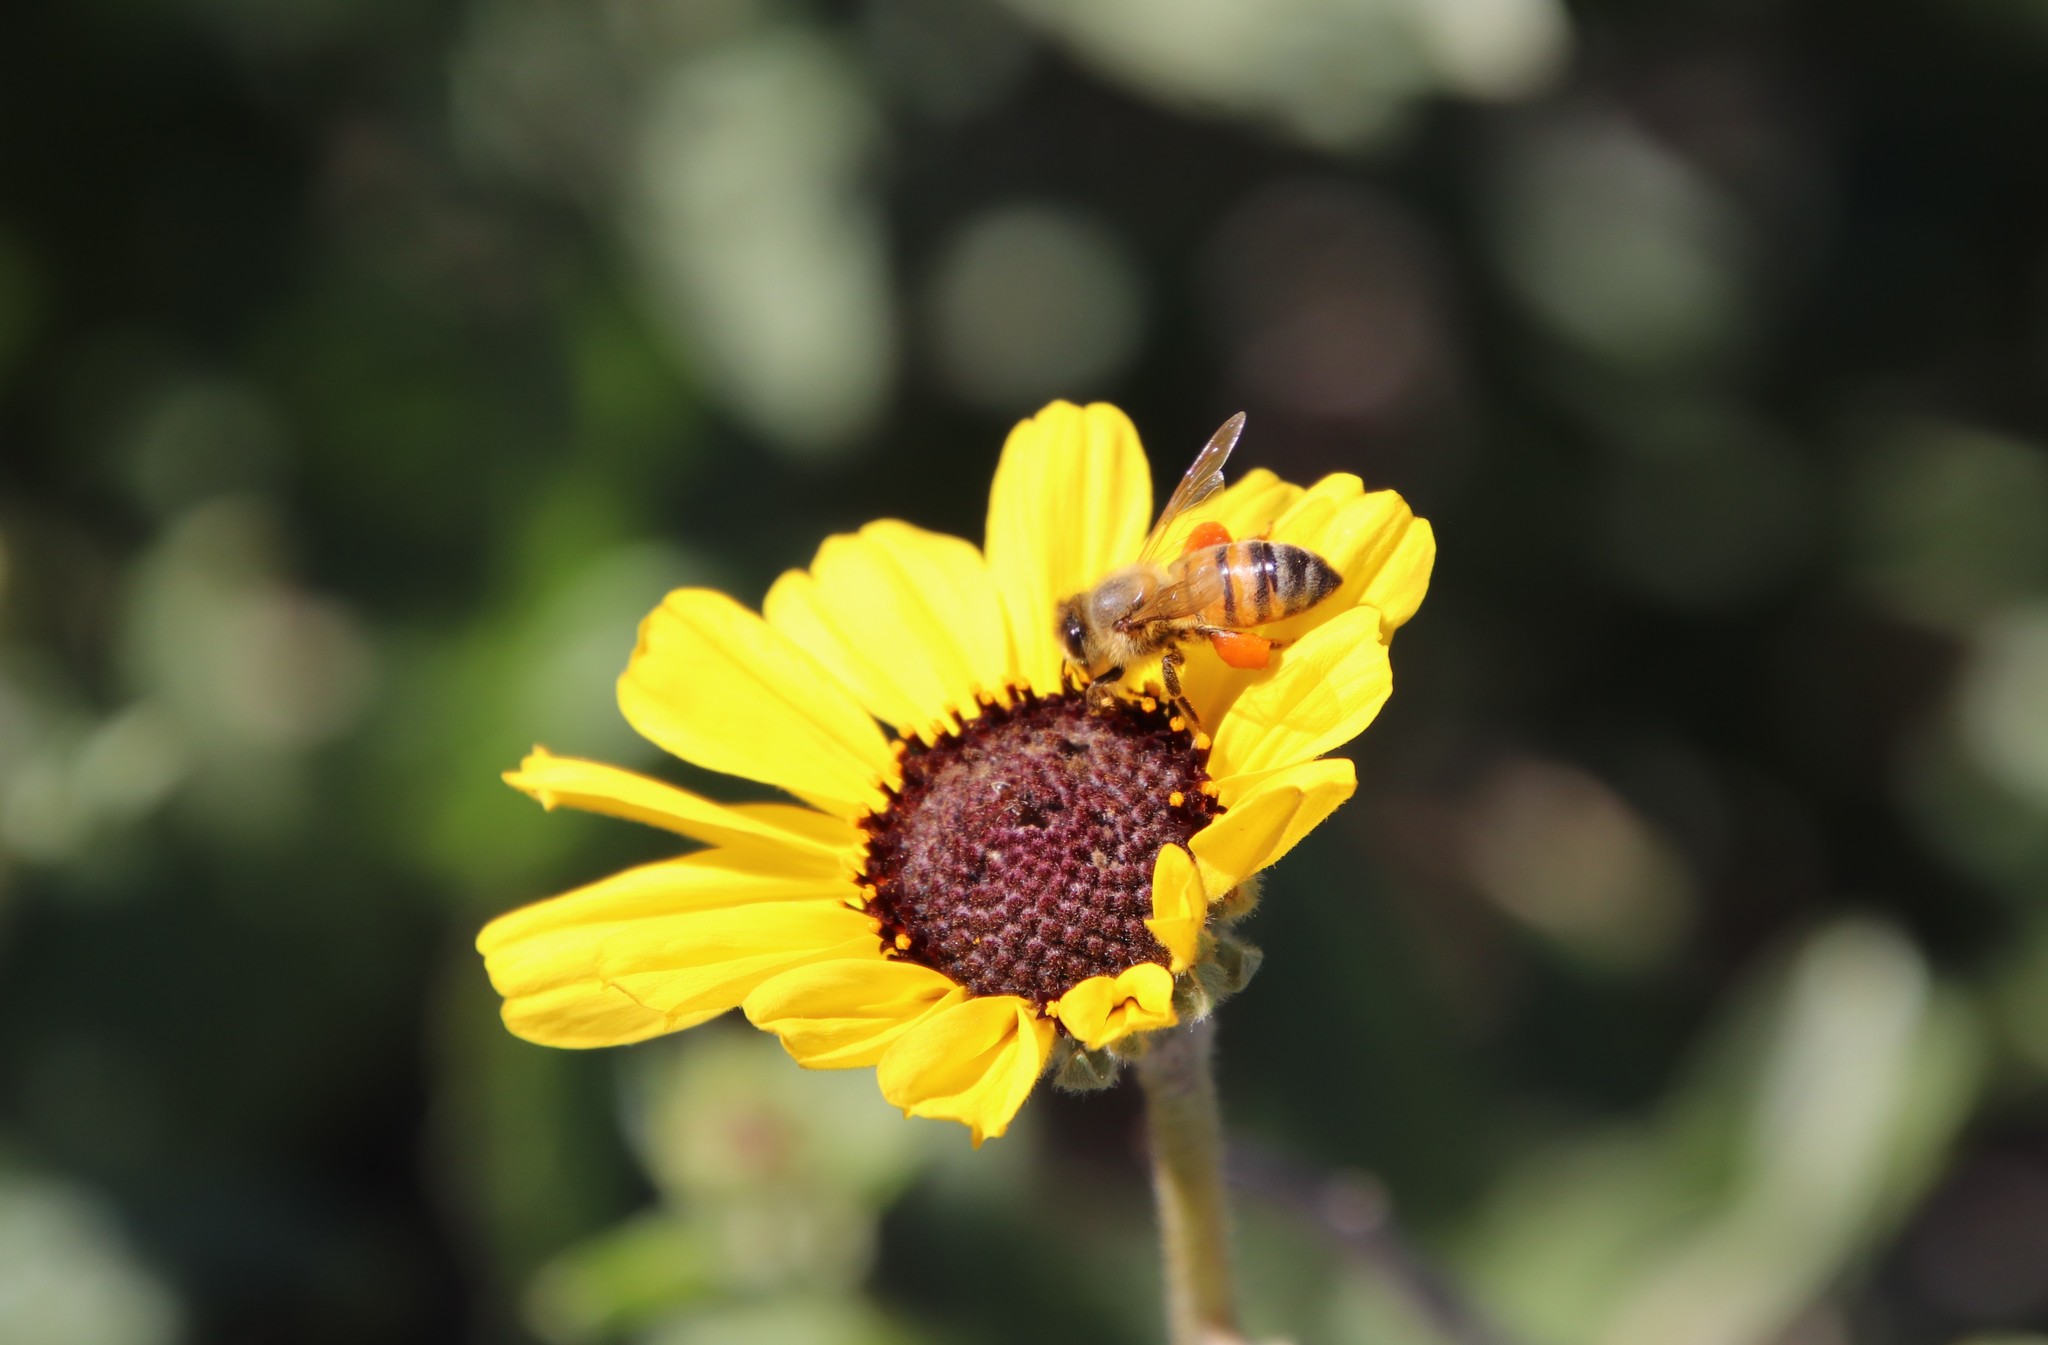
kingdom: Plantae
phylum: Tracheophyta
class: Magnoliopsida
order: Asterales
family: Asteraceae
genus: Encelia
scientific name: Encelia californica
